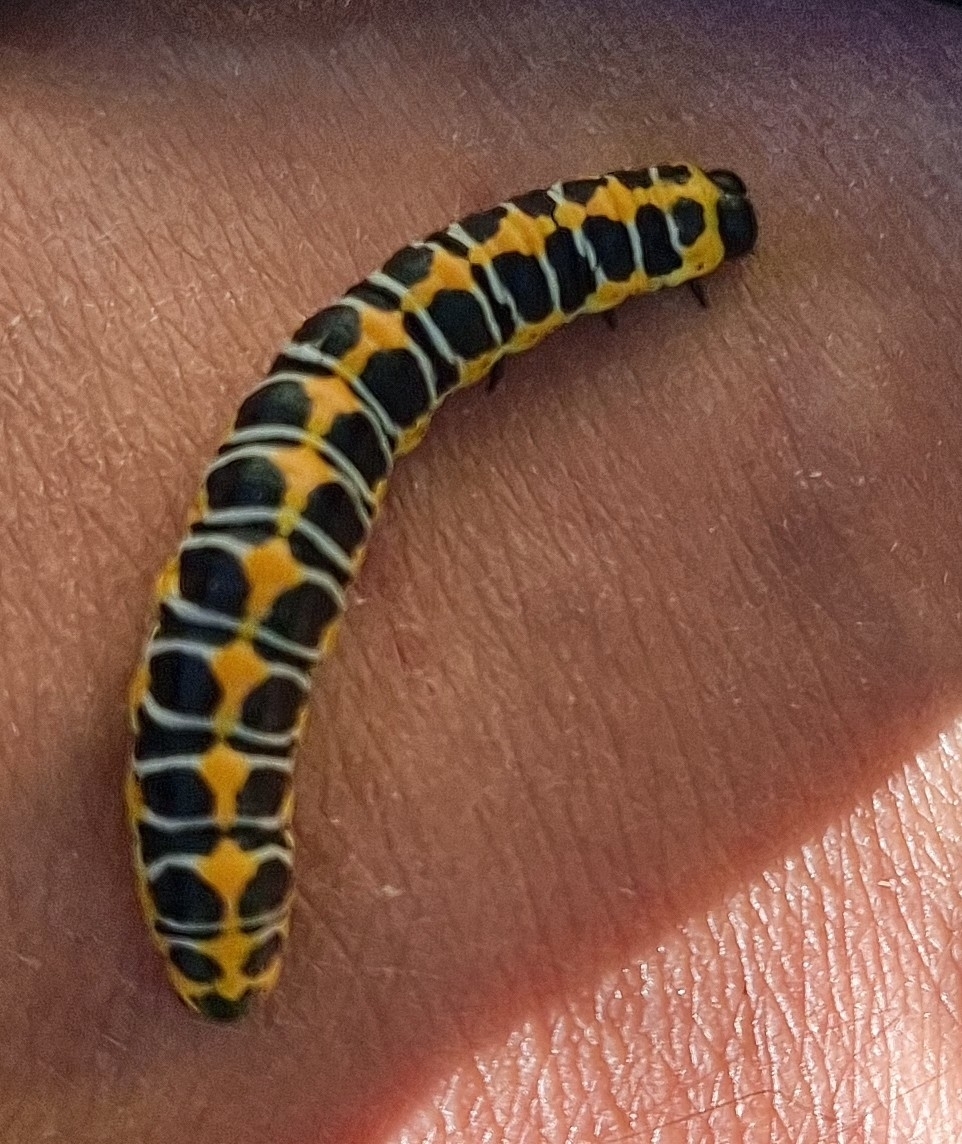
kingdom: Animalia
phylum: Arthropoda
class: Insecta
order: Lepidoptera
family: Noctuidae
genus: Cucullia
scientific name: Cucullia lactucae
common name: Lettuce shark
